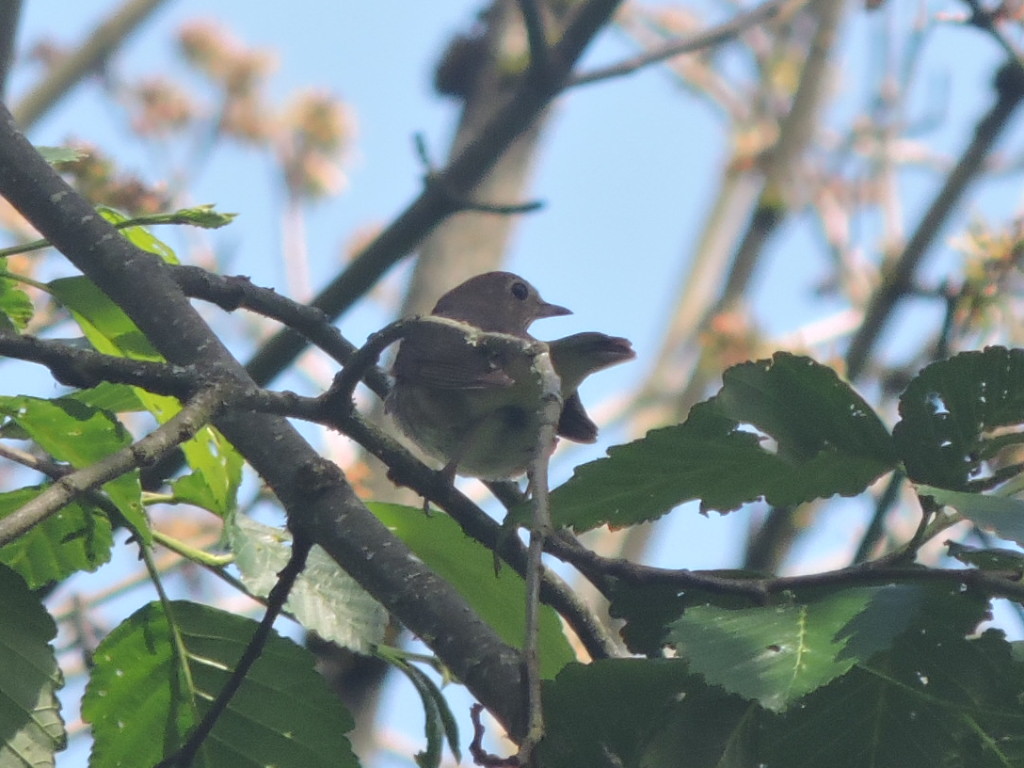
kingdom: Animalia
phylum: Chordata
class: Aves
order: Passeriformes
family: Turdidae
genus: Catharus
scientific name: Catharus ustulatus
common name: Swainson's thrush
